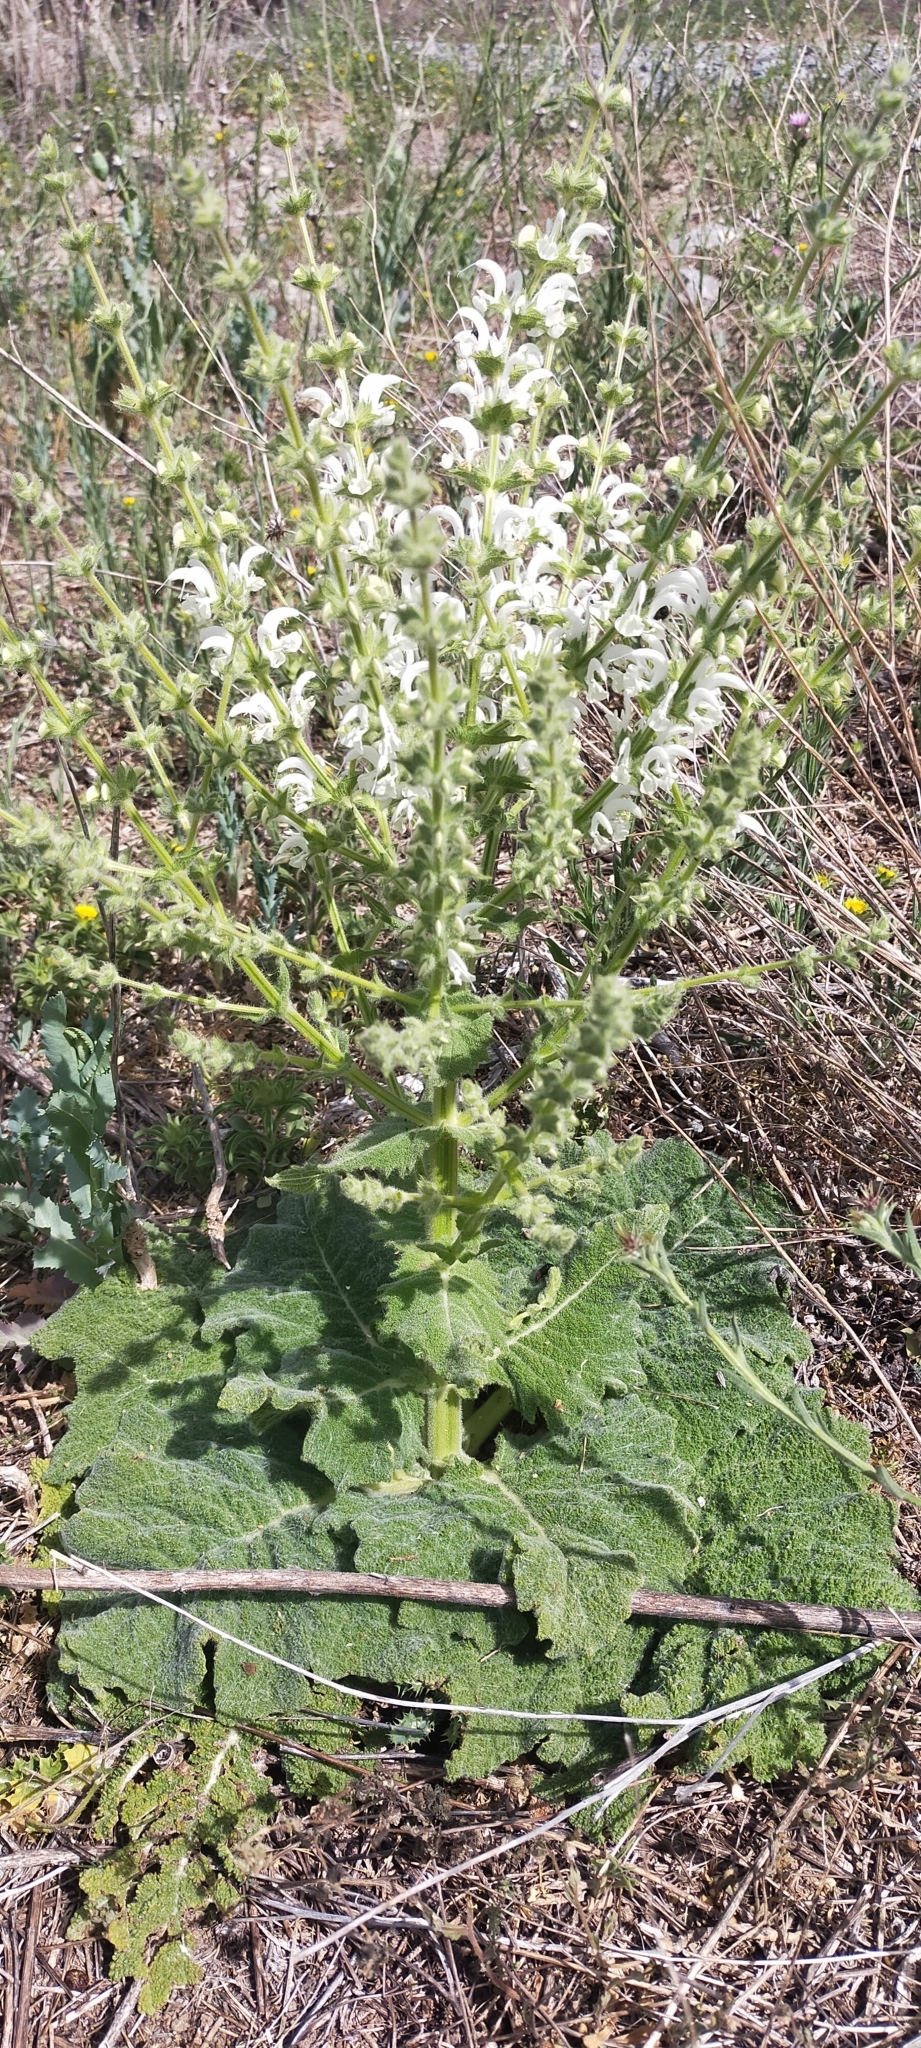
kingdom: Plantae
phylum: Tracheophyta
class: Magnoliopsida
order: Lamiales
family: Lamiaceae
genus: Salvia
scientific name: Salvia argentea
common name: Silver sage
